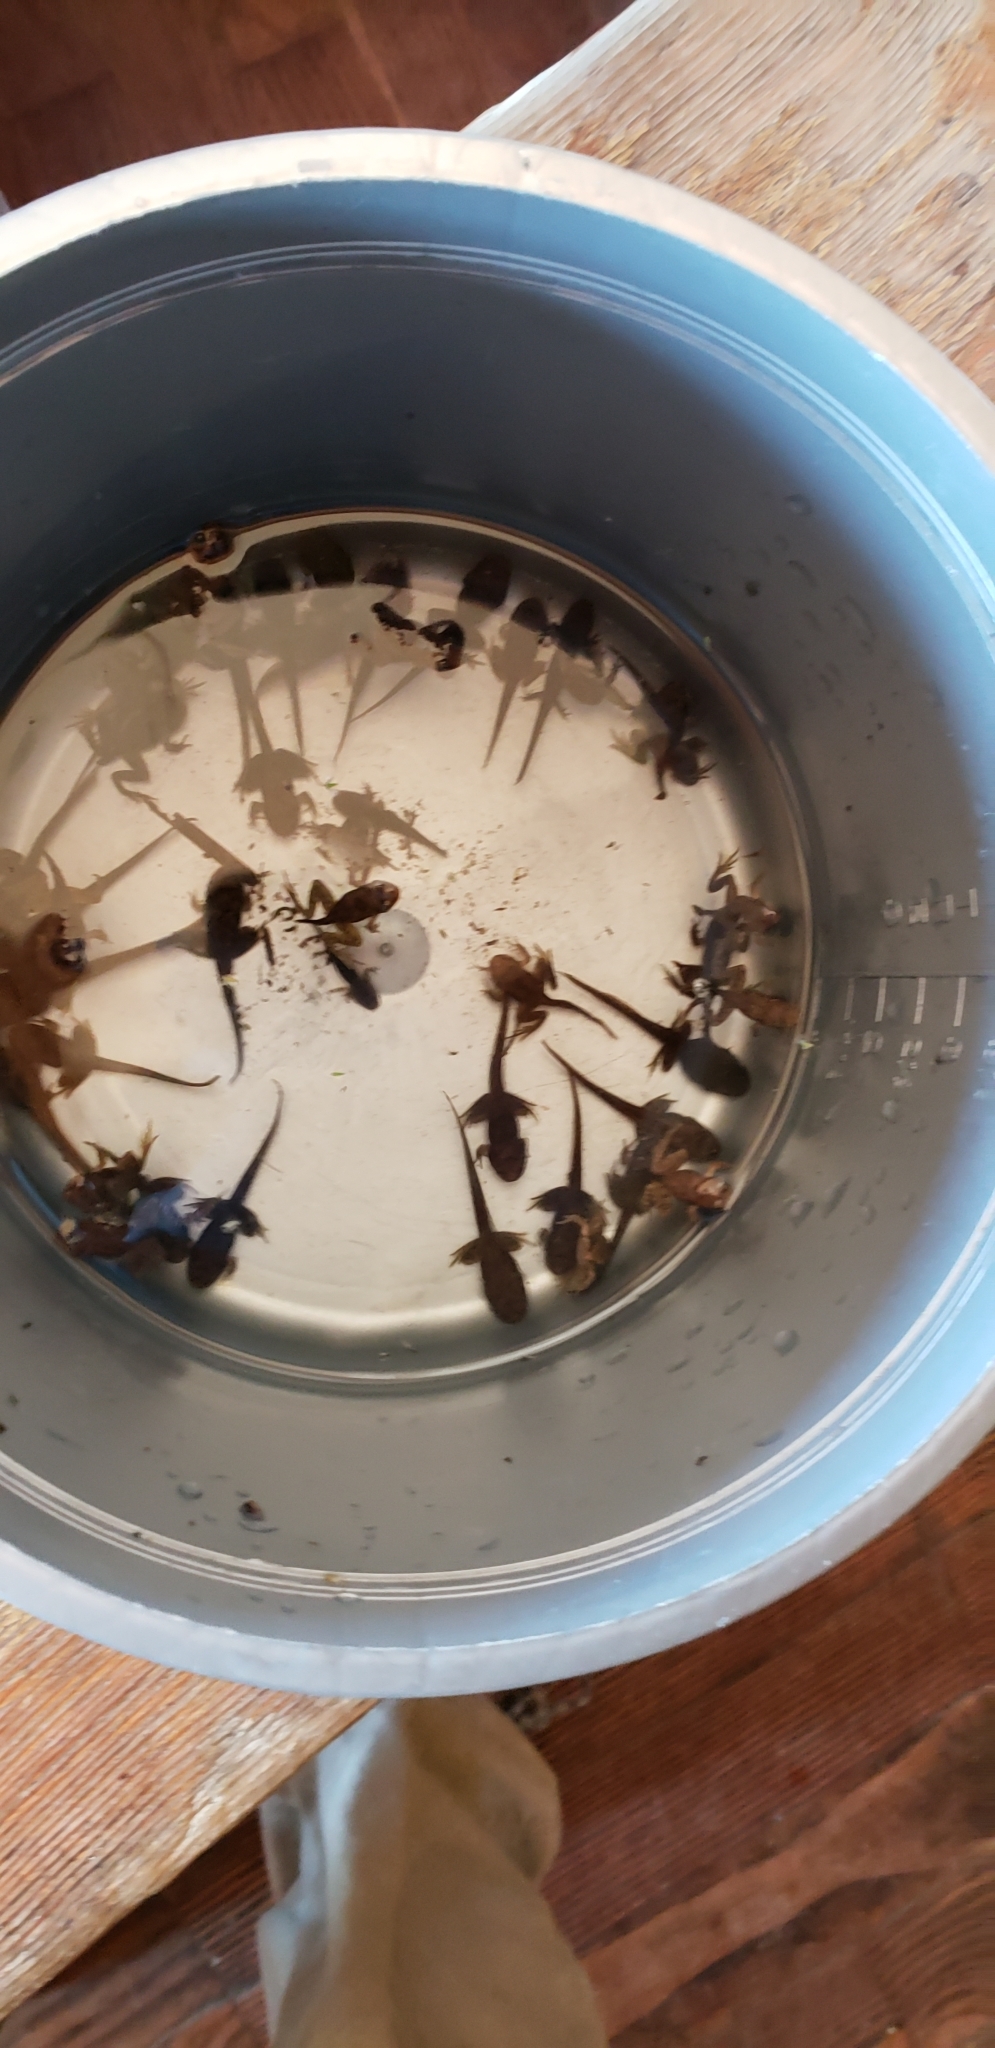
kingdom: Animalia
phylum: Chordata
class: Amphibia
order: Anura
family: Ranidae
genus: Lithobates
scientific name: Lithobates sylvaticus
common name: Wood frog
